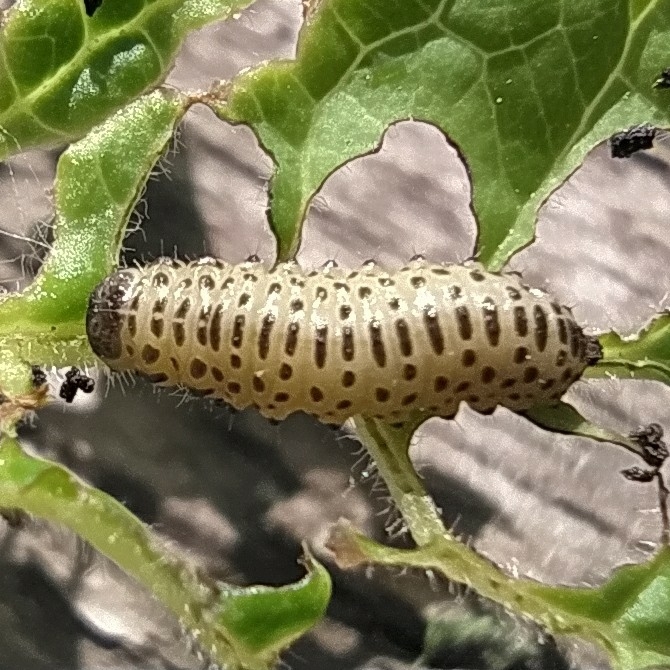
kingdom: Animalia
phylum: Arthropoda
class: Insecta
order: Coleoptera
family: Chrysomelidae
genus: Pyrrhalta
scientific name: Pyrrhalta viburni
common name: Guelder-rose leaf beetle
